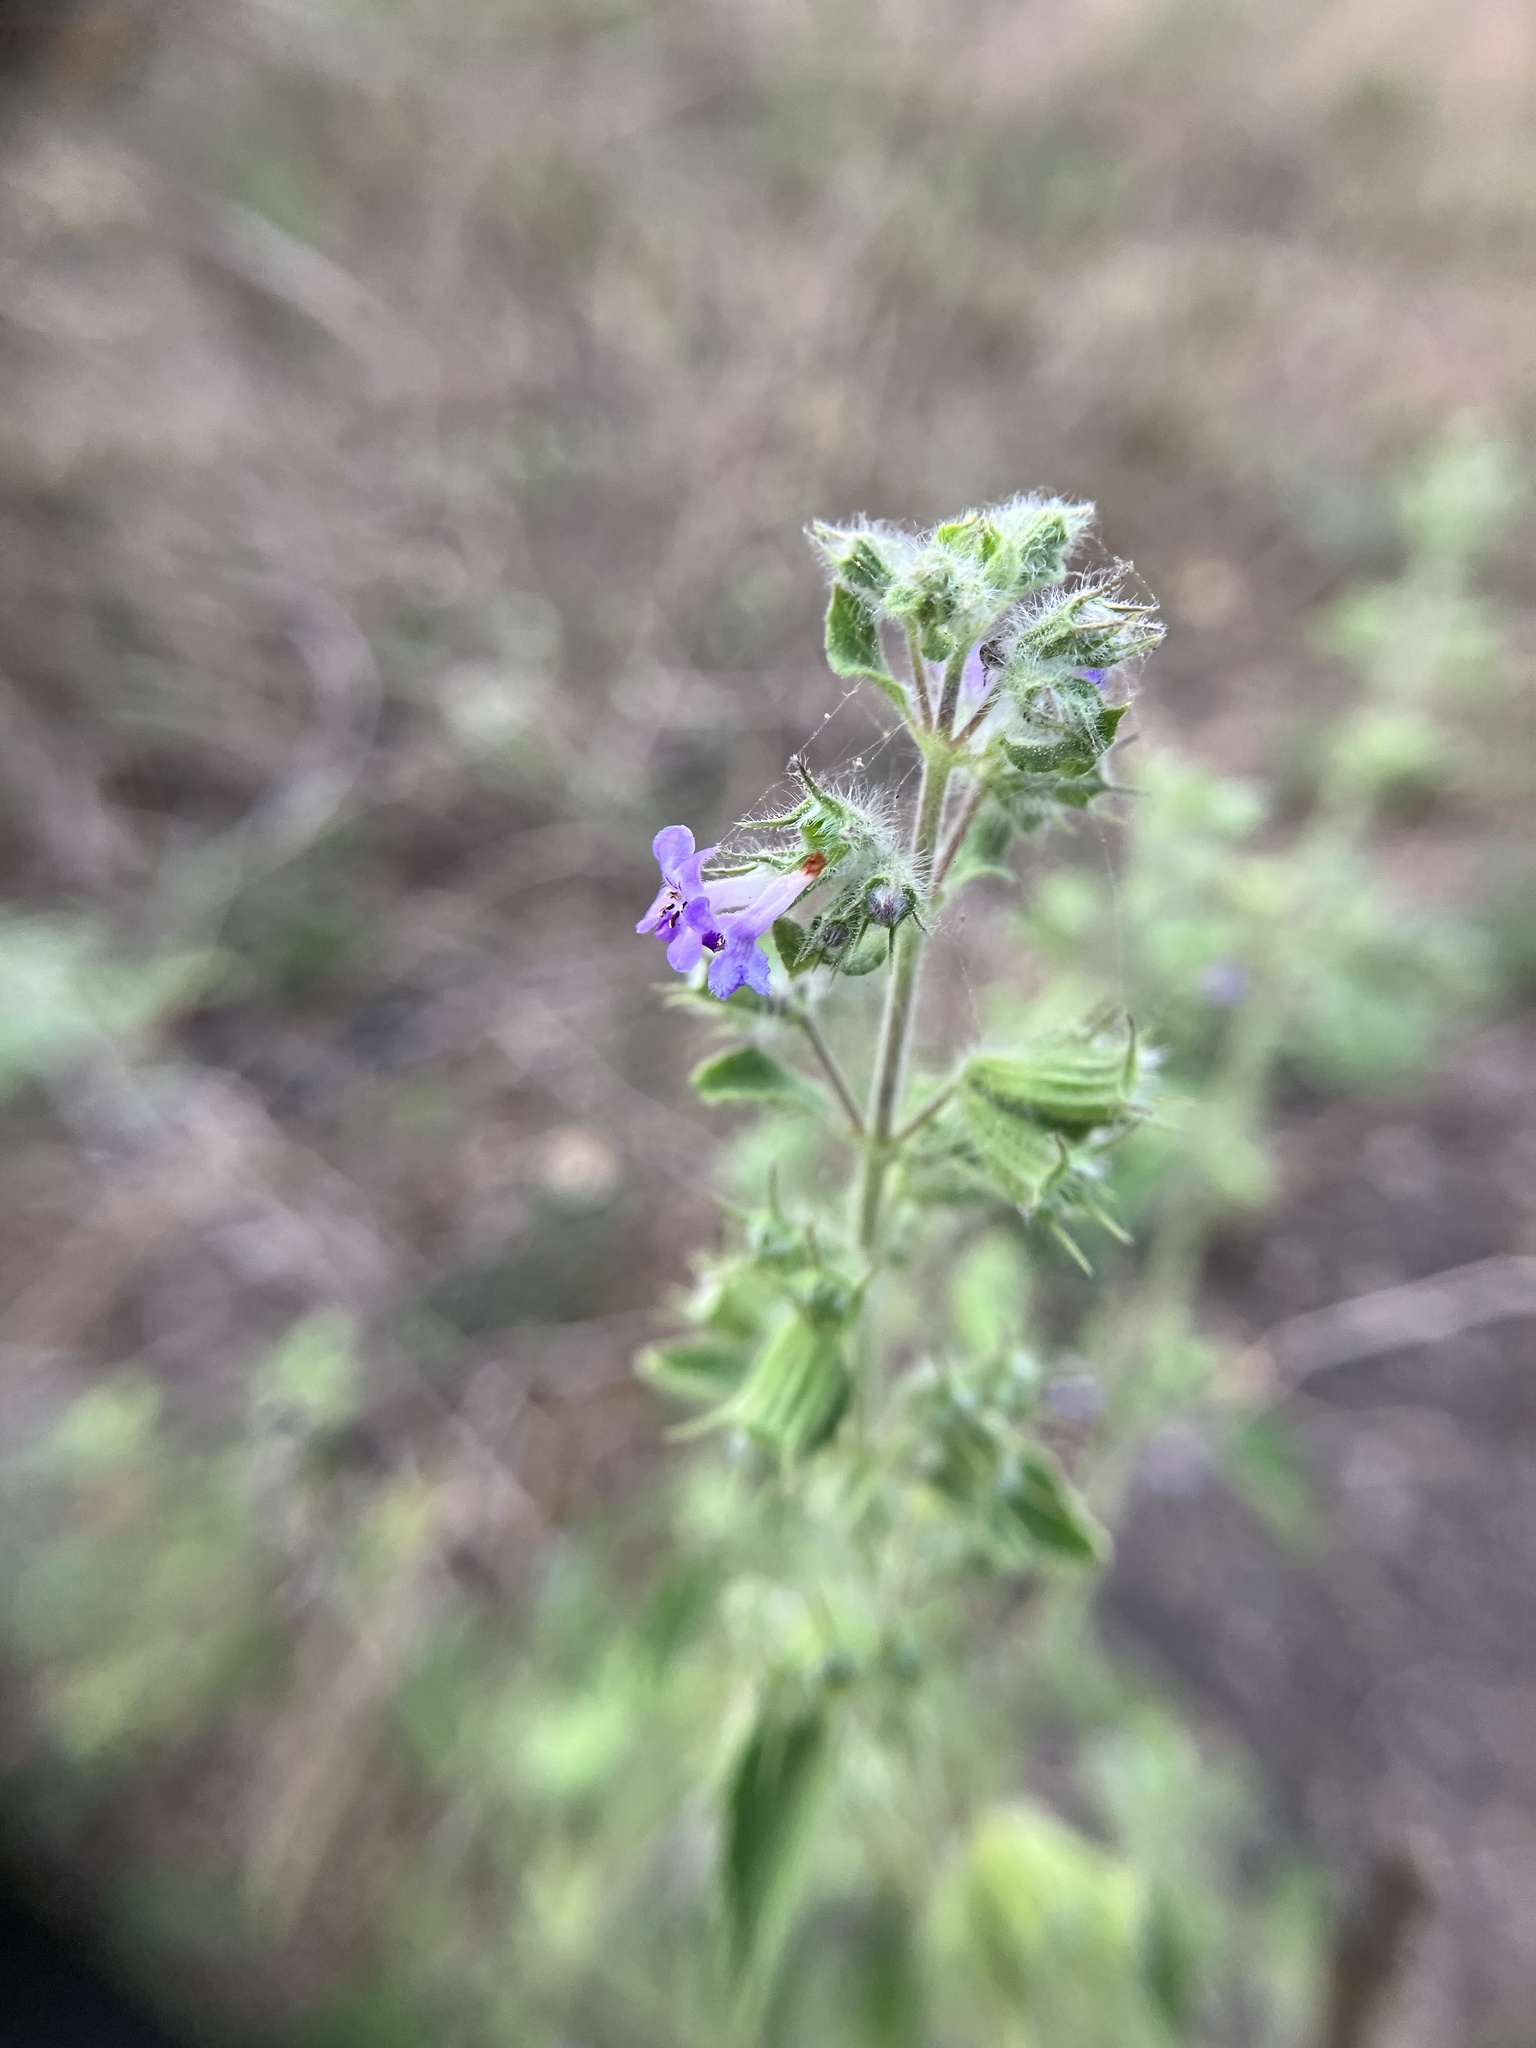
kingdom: Plantae
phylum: Tracheophyta
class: Magnoliopsida
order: Lamiales
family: Lamiaceae
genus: Mesosphaerum
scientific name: Mesosphaerum suaveolens
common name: Pignut
